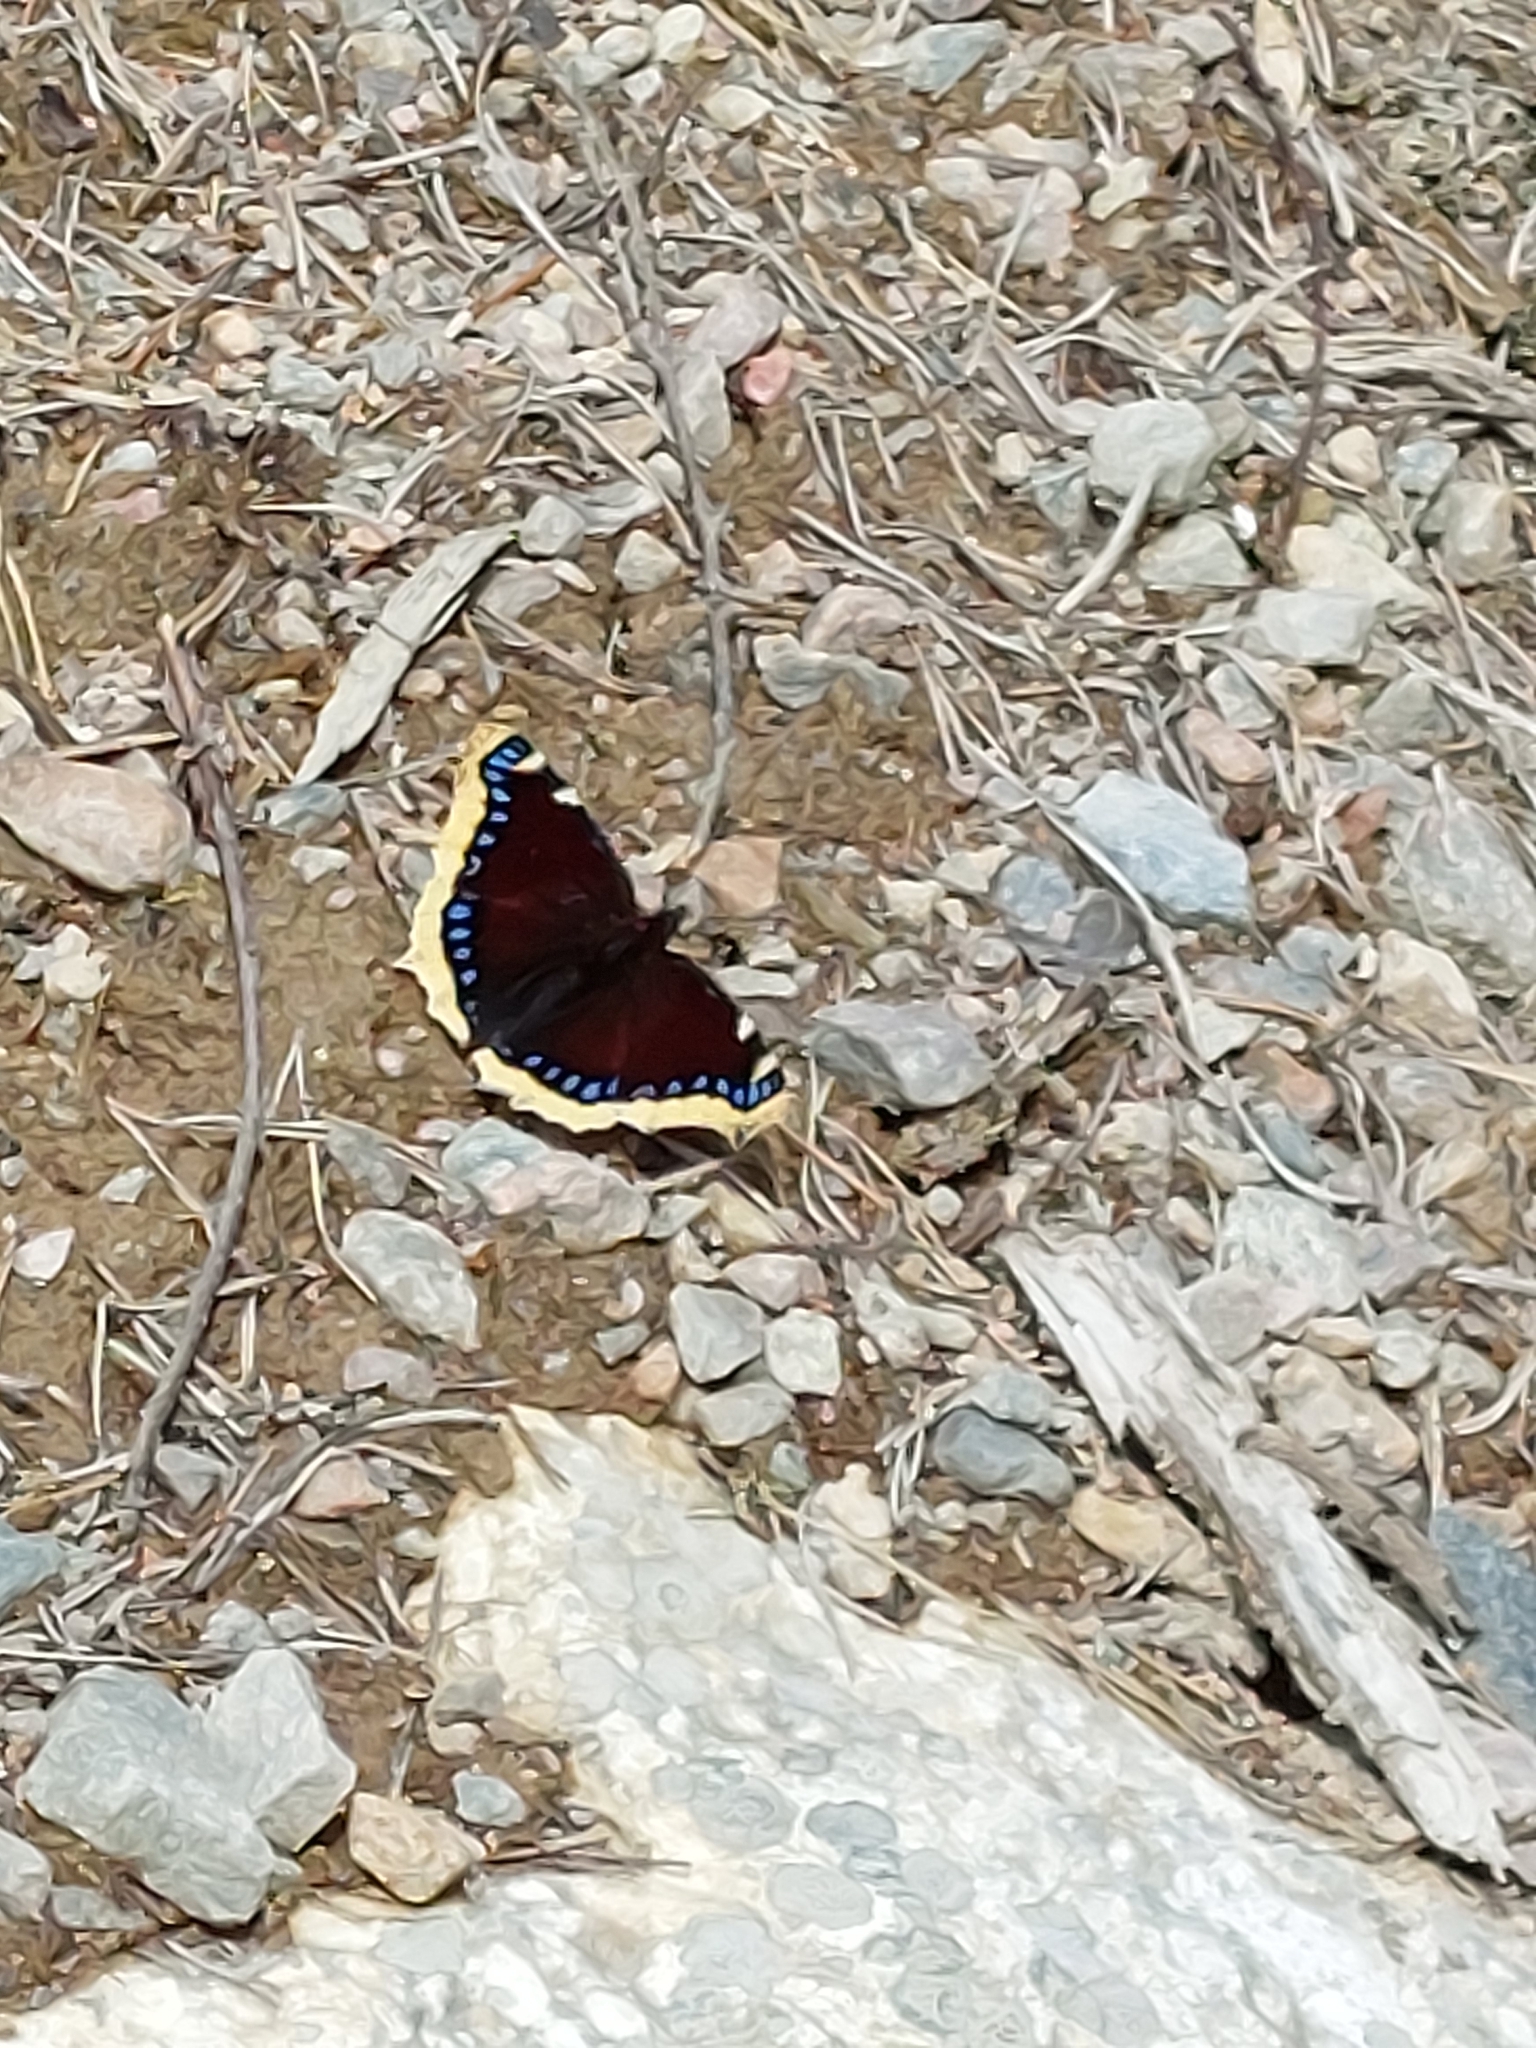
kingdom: Animalia
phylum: Arthropoda
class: Insecta
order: Lepidoptera
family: Nymphalidae
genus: Nymphalis
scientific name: Nymphalis antiopa
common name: Camberwell beauty
